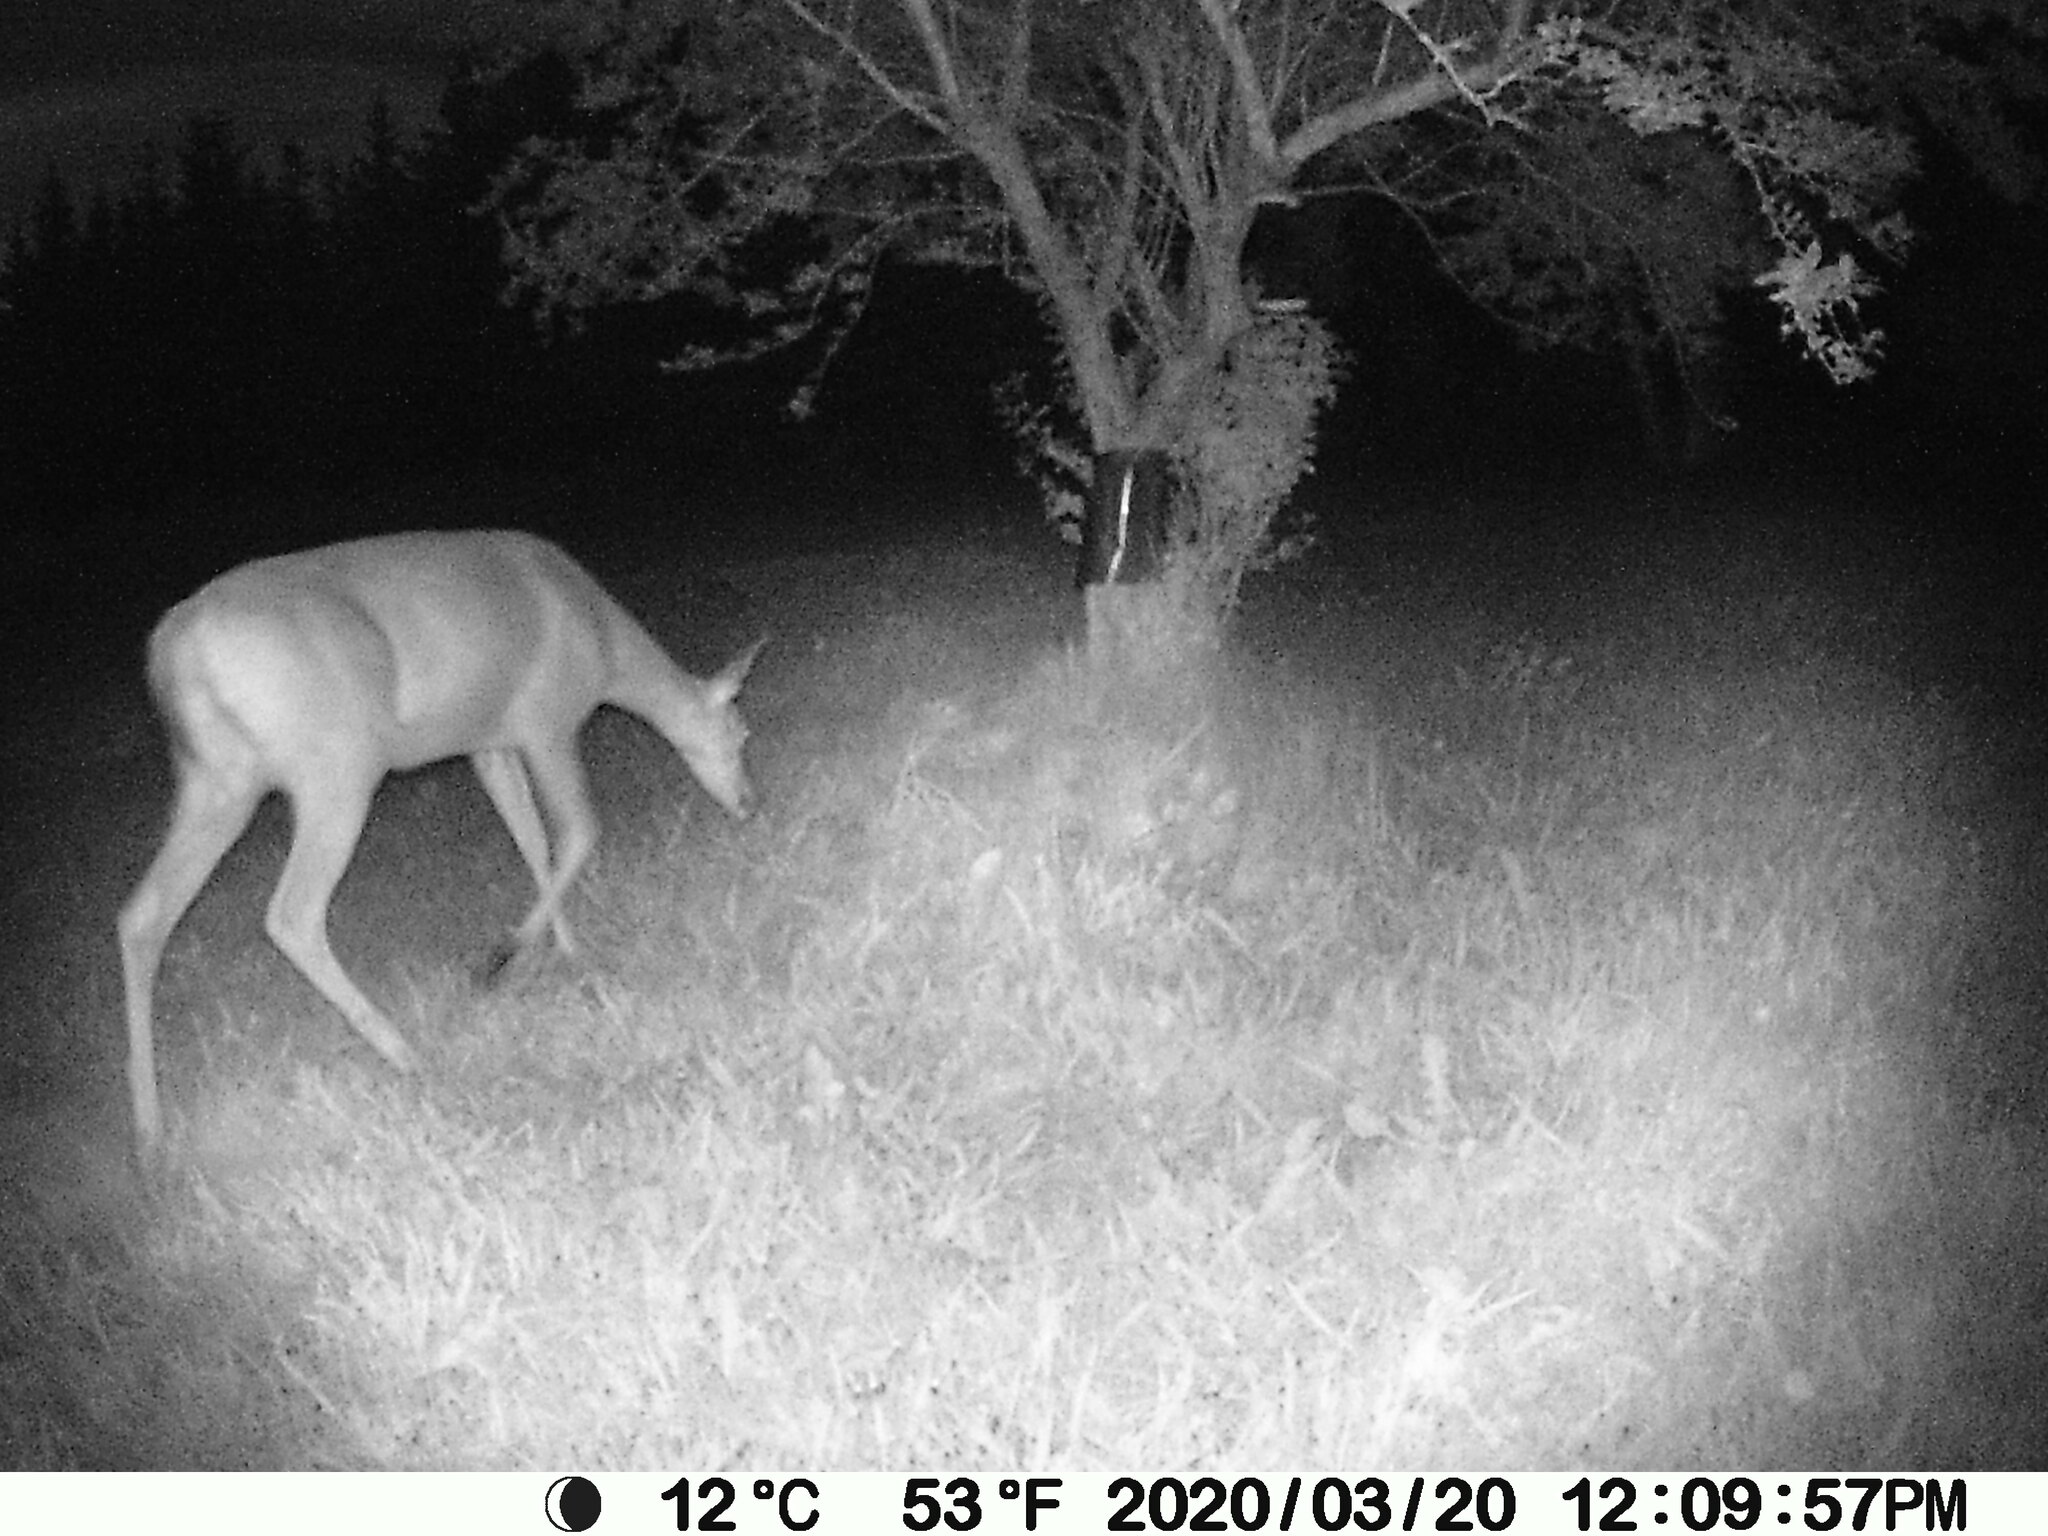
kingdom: Animalia
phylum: Chordata
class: Mammalia
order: Artiodactyla
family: Cervidae
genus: Odocoileus
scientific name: Odocoileus virginianus
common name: White-tailed deer
